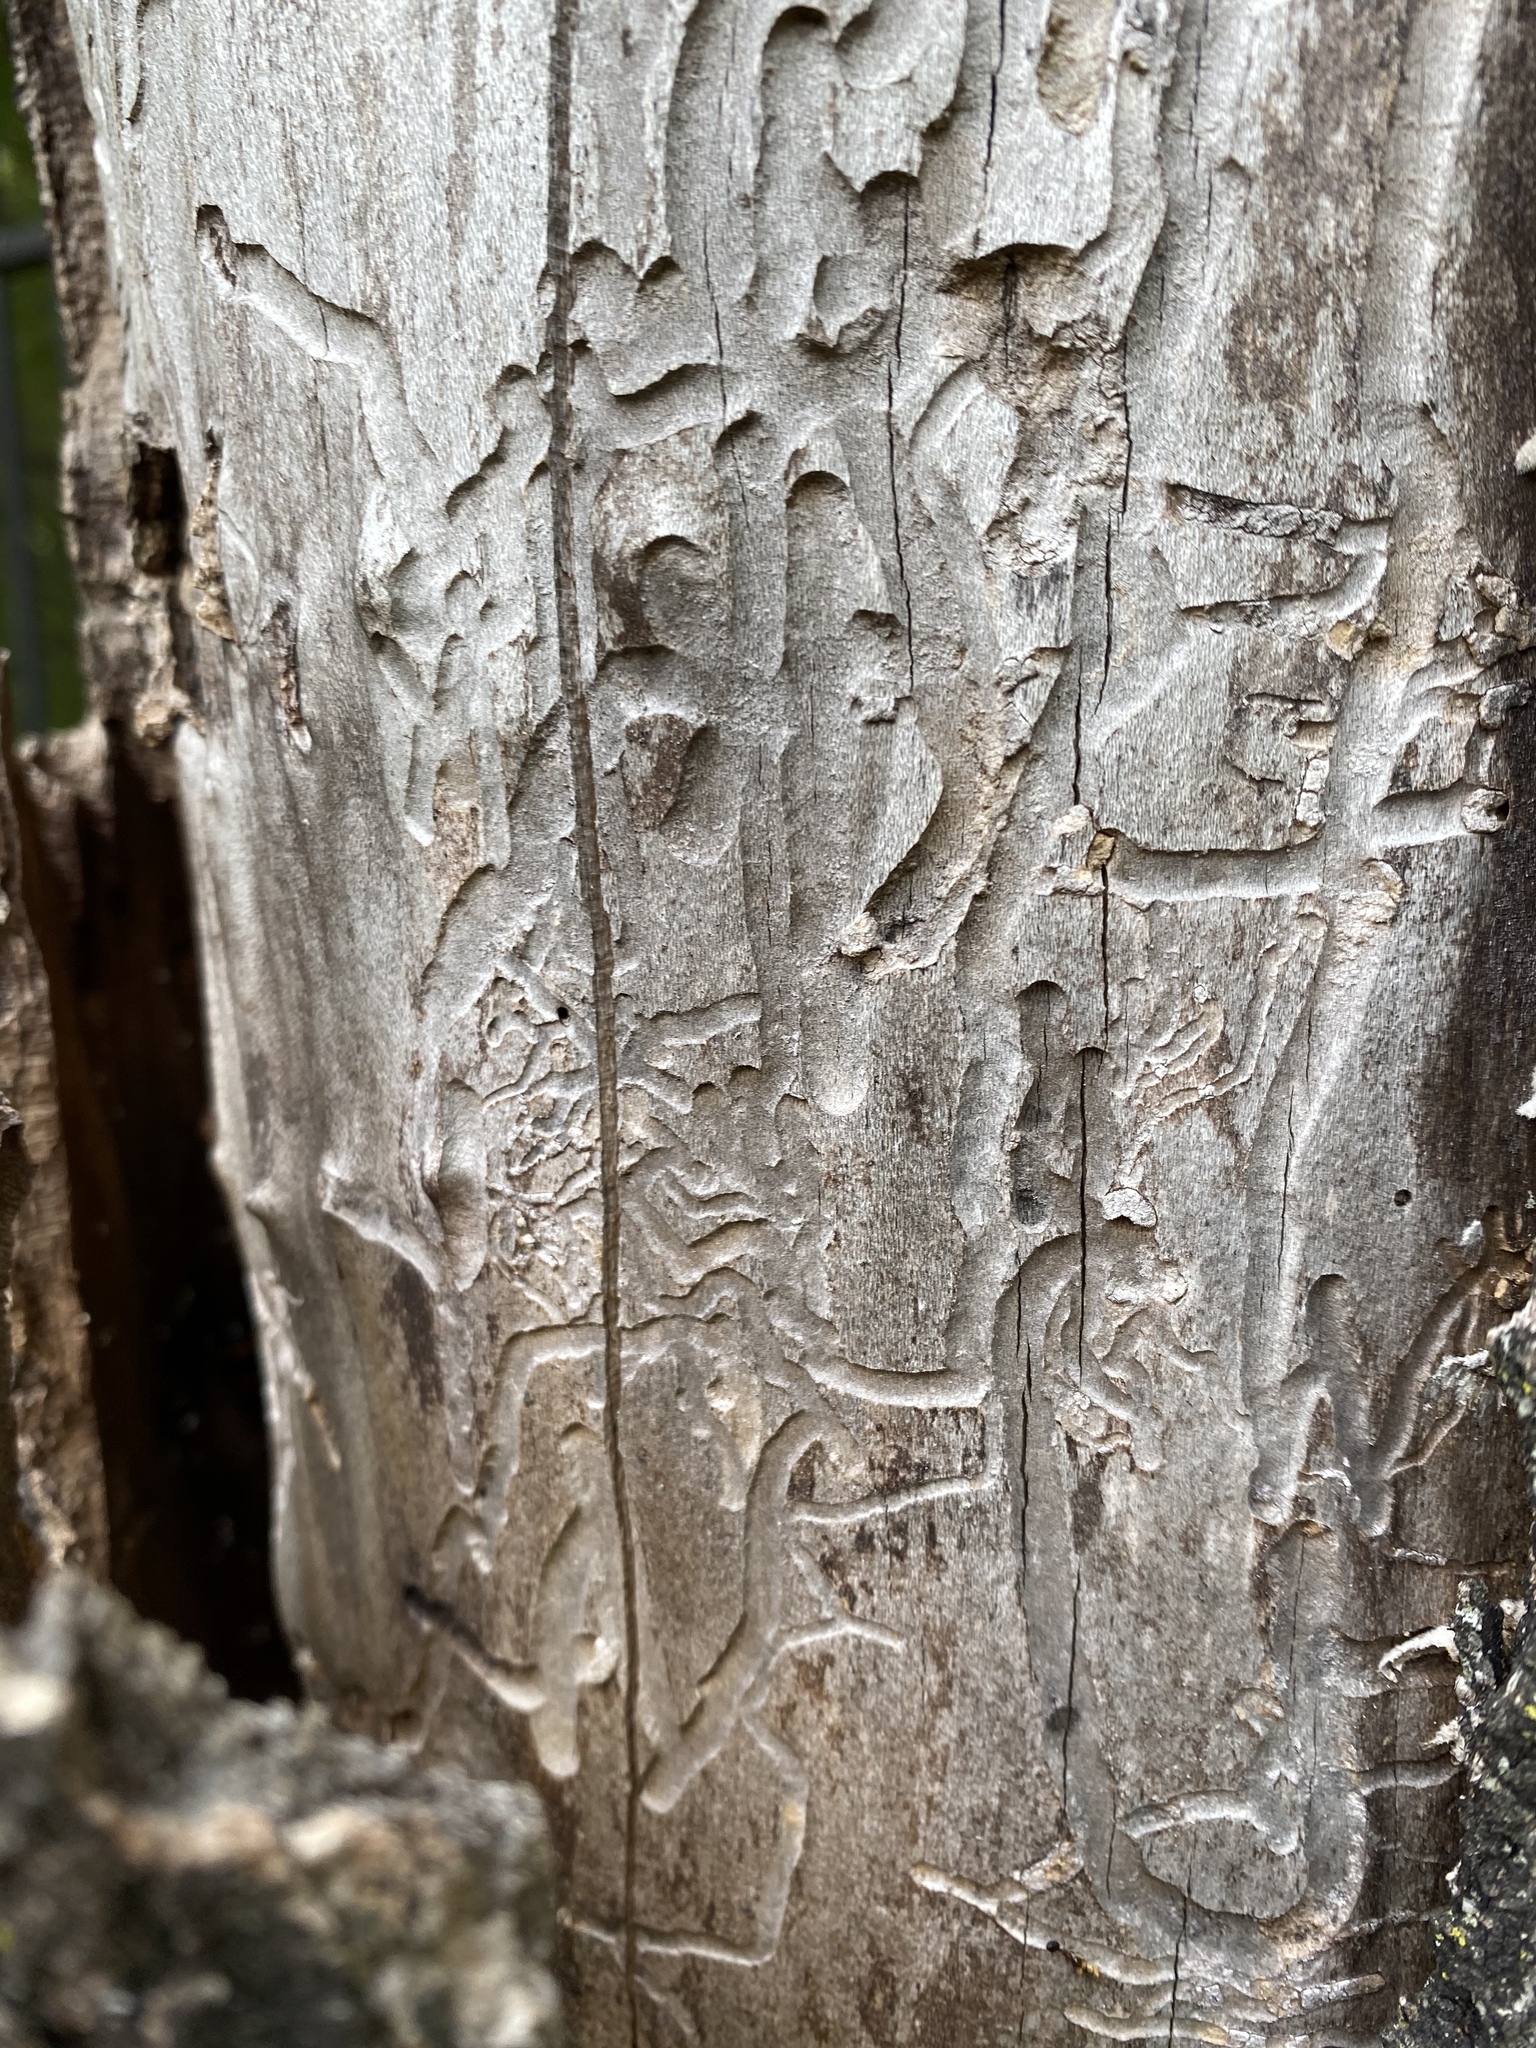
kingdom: Animalia
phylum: Arthropoda
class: Insecta
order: Coleoptera
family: Buprestidae
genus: Agrilus
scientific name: Agrilus planipennis
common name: Emerald ash borer
